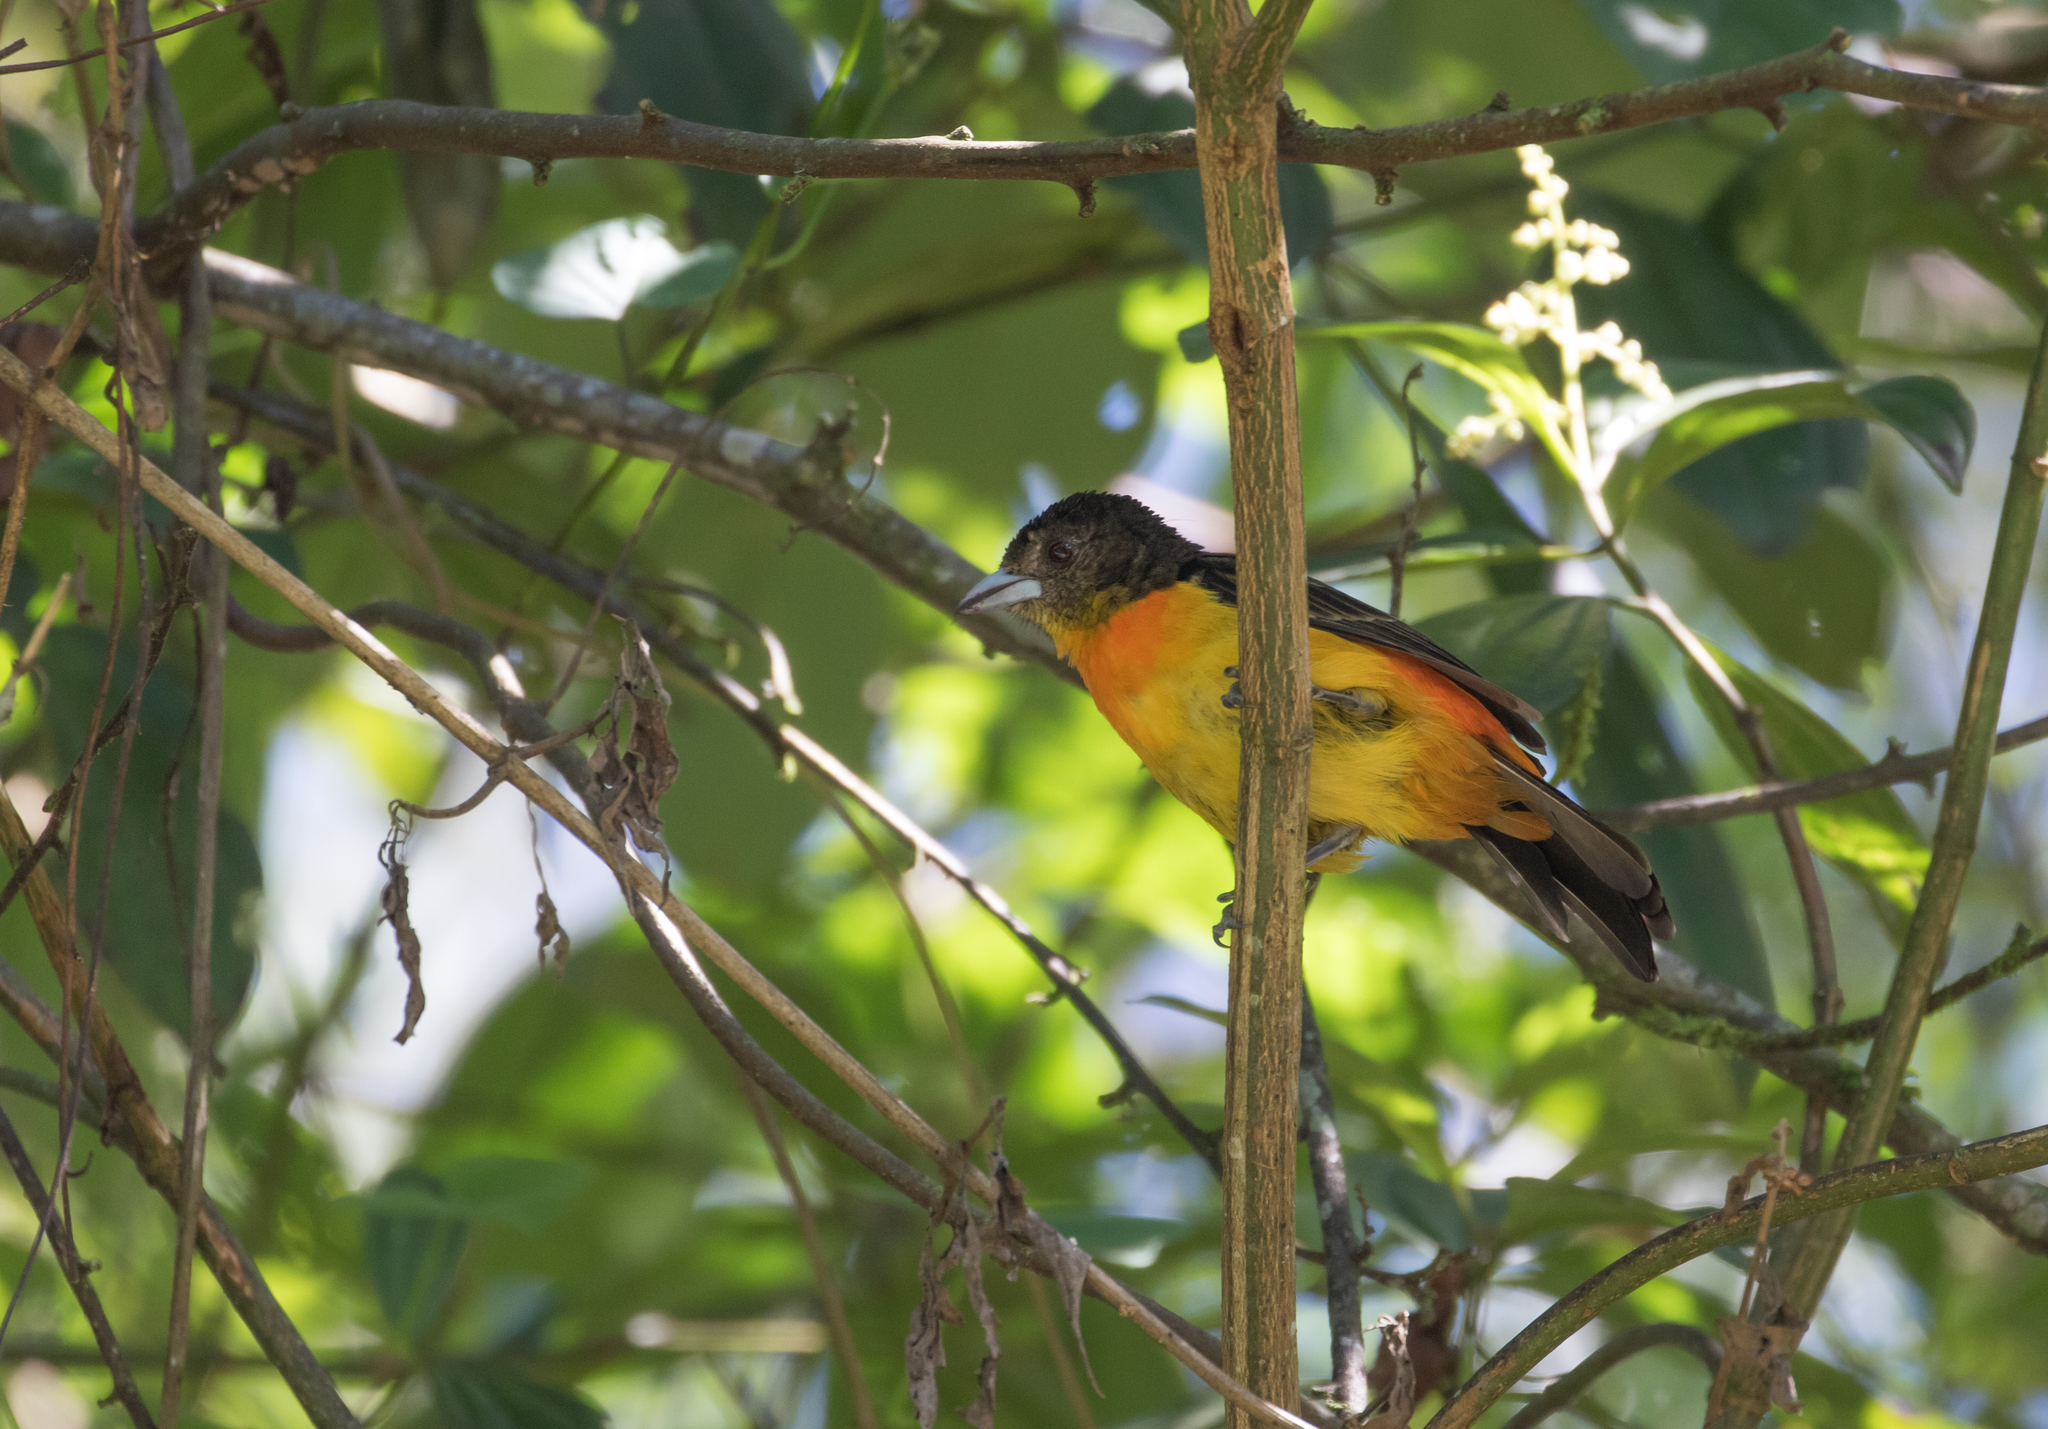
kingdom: Animalia
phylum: Chordata
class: Aves
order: Passeriformes
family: Thraupidae
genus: Ramphocelus
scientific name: Ramphocelus flammigerus
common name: Flame-rumped tanager
